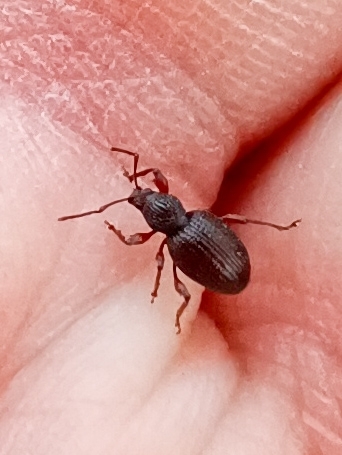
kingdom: Animalia
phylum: Arthropoda
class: Insecta
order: Coleoptera
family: Curculionidae
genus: Otiorhynchus
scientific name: Otiorhynchus ovatus
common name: Strawberry root weevil
